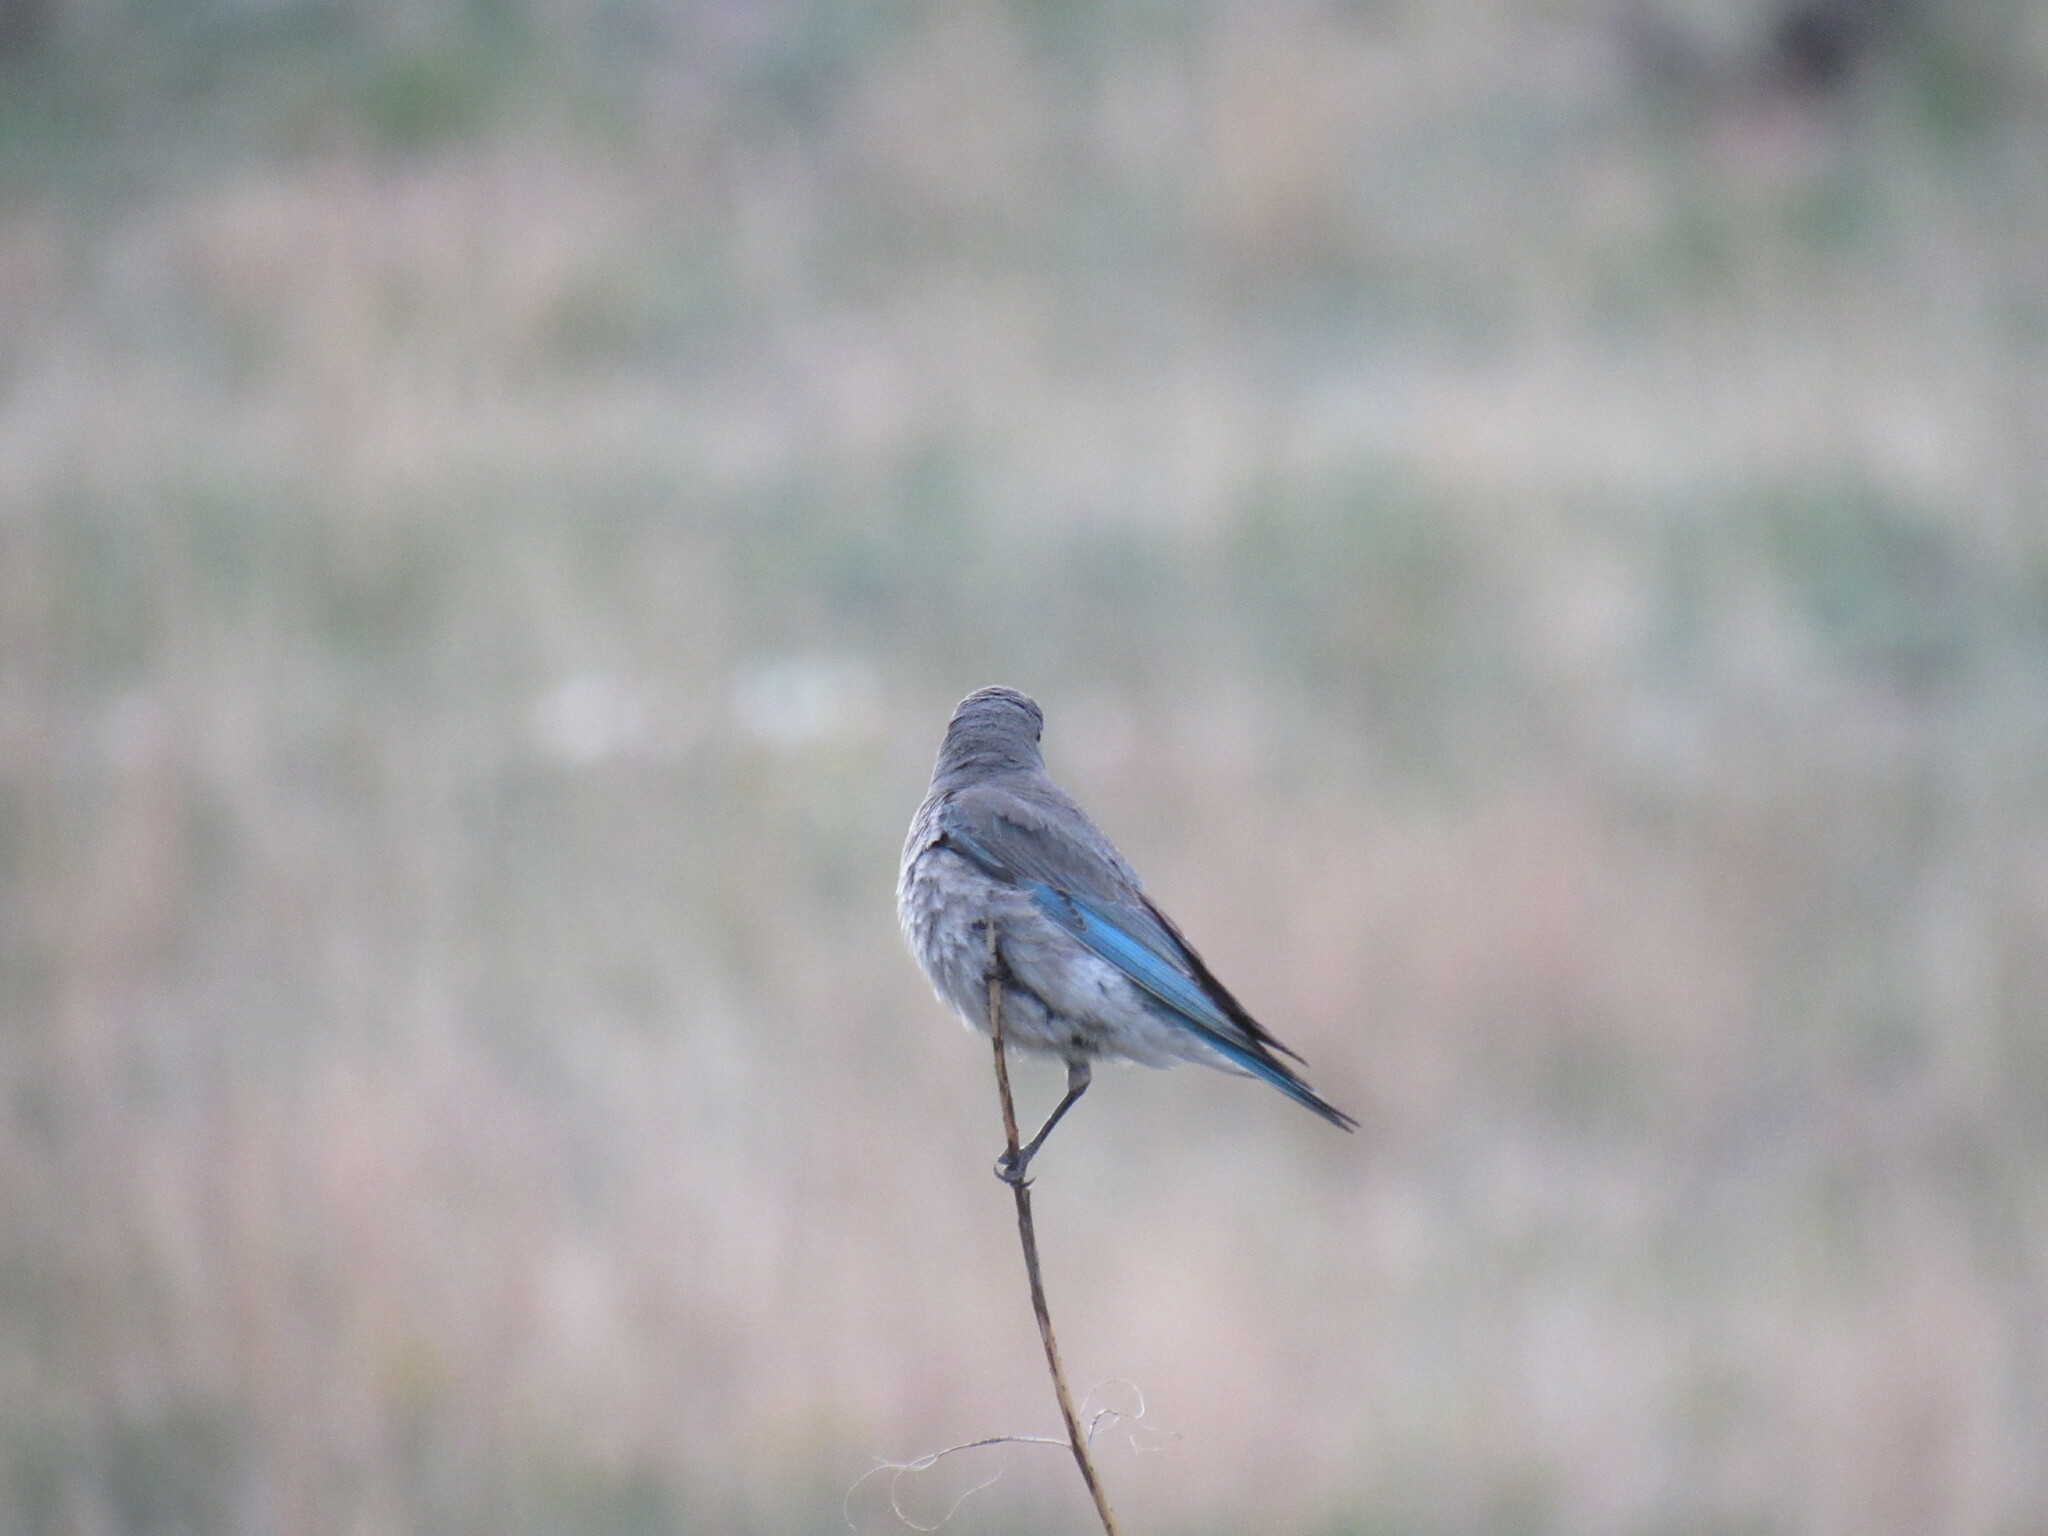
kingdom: Animalia
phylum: Chordata
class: Aves
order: Passeriformes
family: Turdidae
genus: Sialia
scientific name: Sialia currucoides
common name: Mountain bluebird
